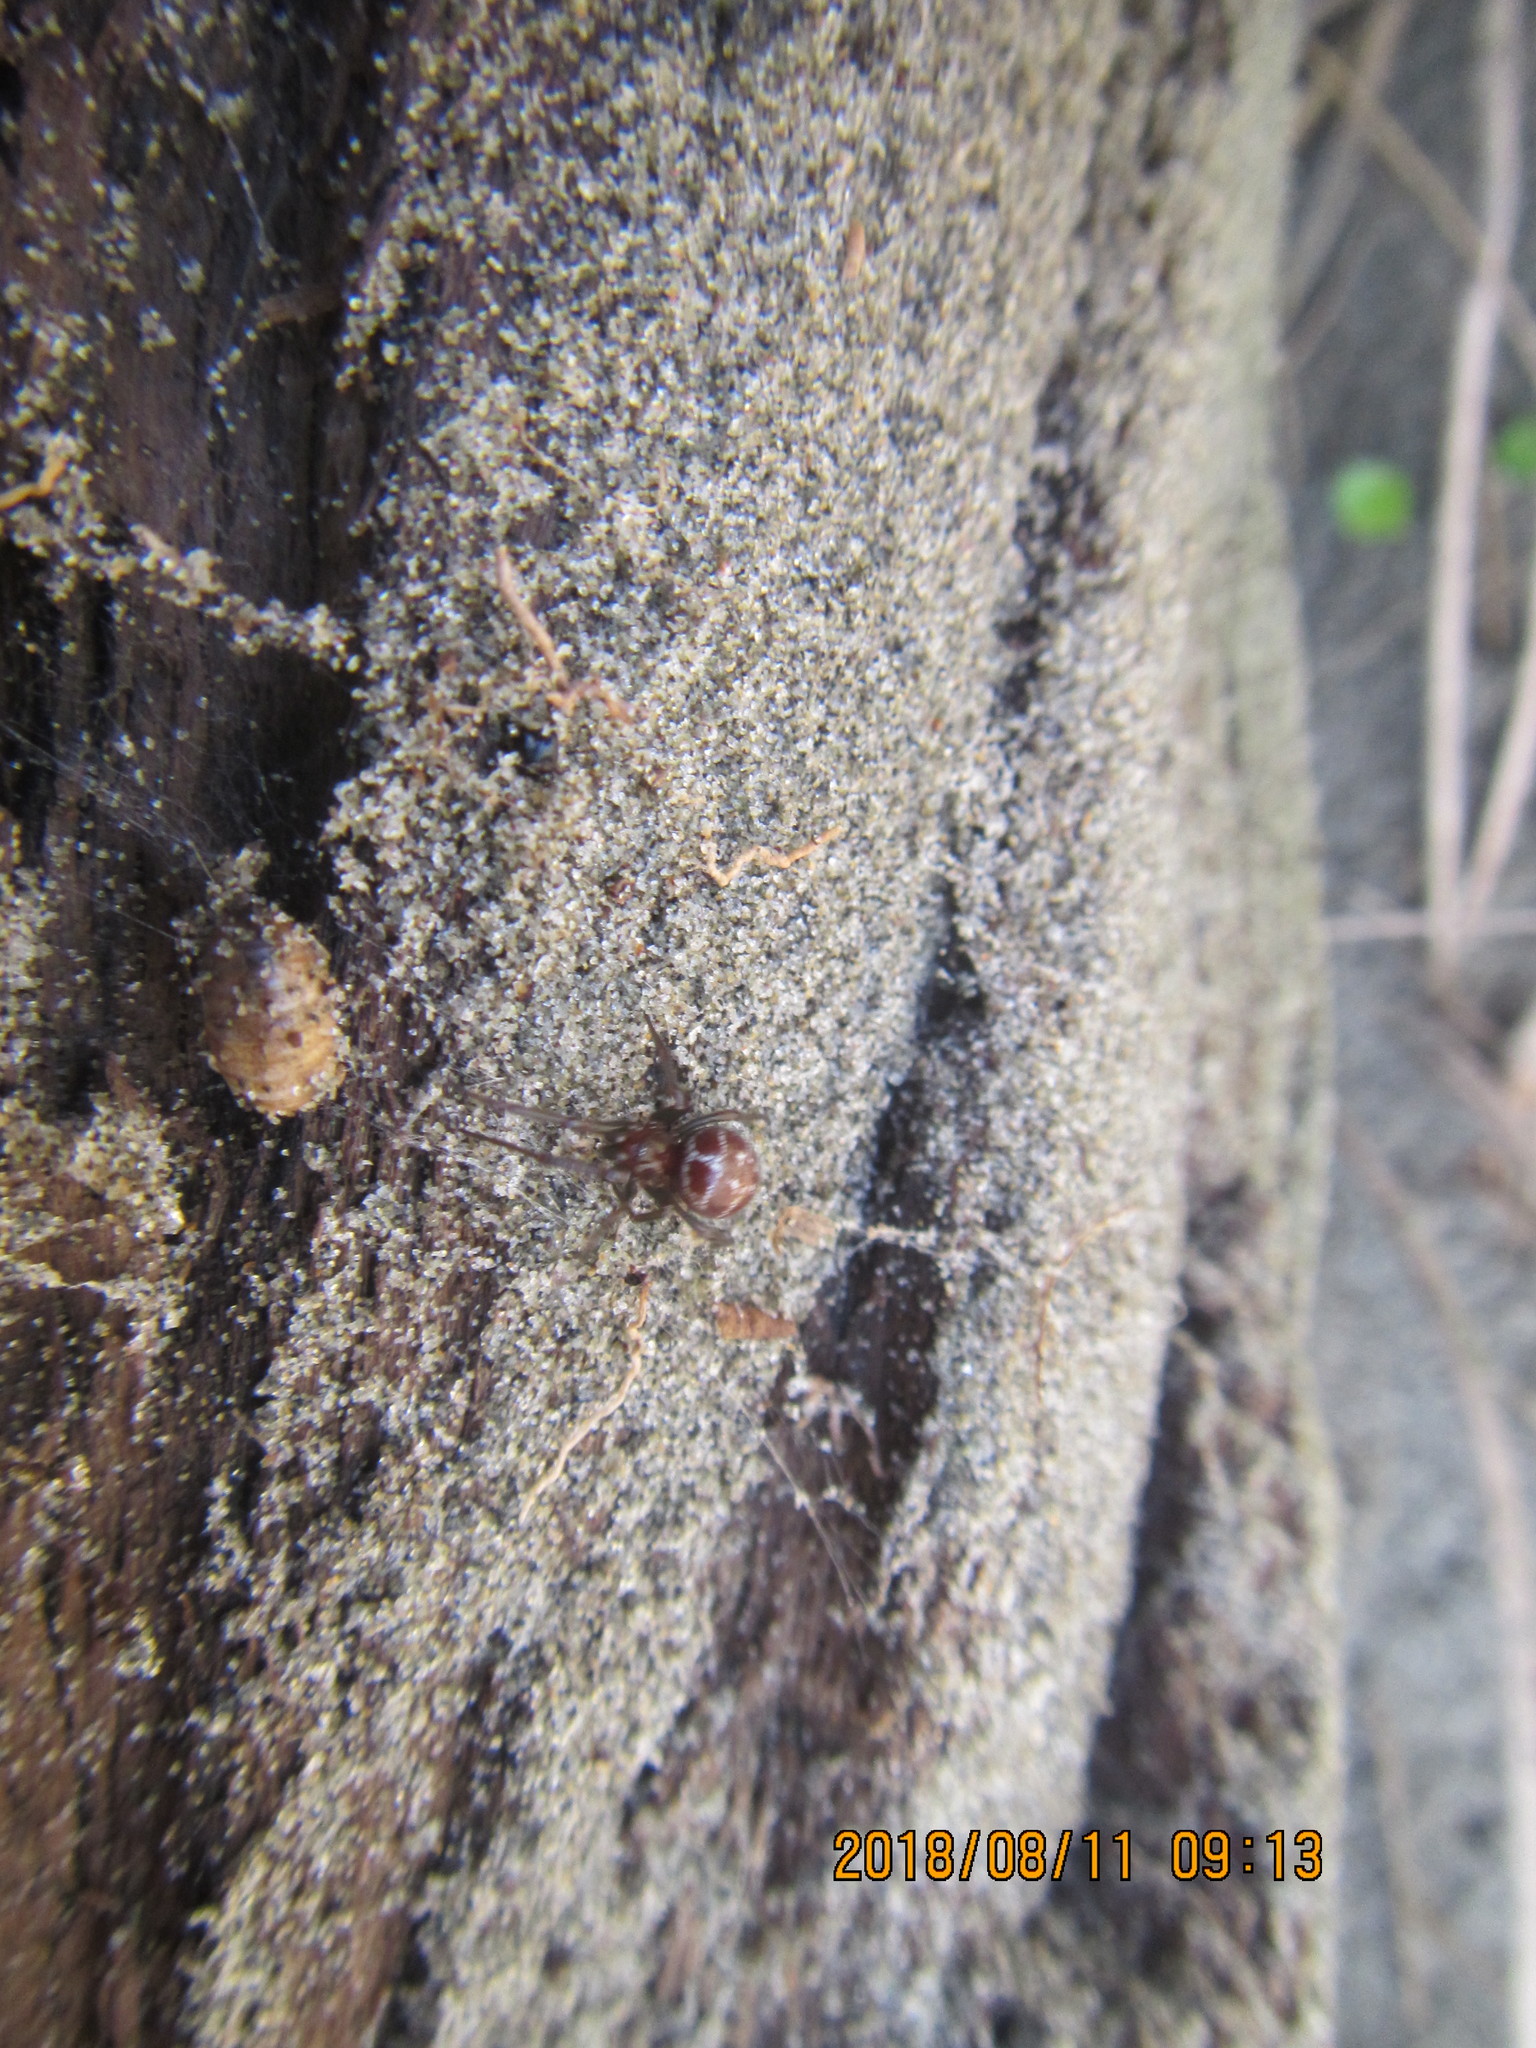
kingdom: Animalia
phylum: Arthropoda
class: Arachnida
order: Araneae
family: Theridiidae
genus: Steatoda
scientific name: Steatoda capensis
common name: Cobweb weaver
